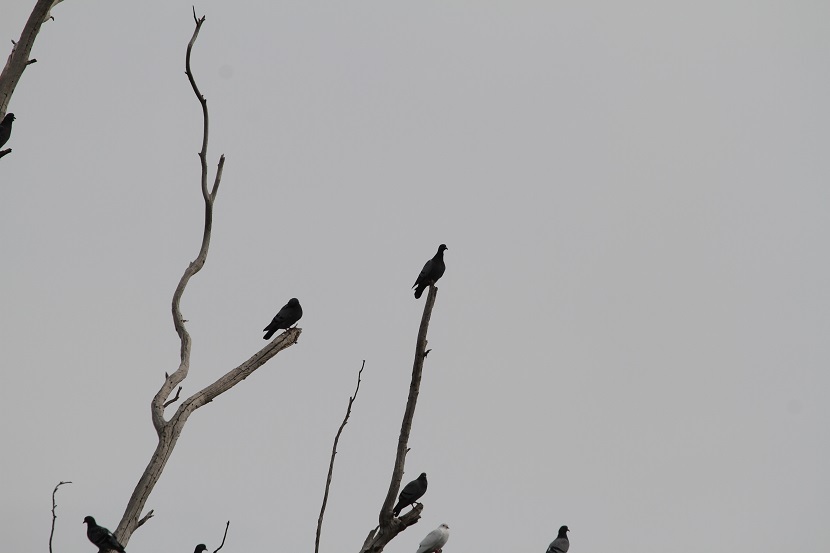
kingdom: Animalia
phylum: Chordata
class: Aves
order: Columbiformes
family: Columbidae
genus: Columba
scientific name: Columba livia
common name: Rock pigeon
